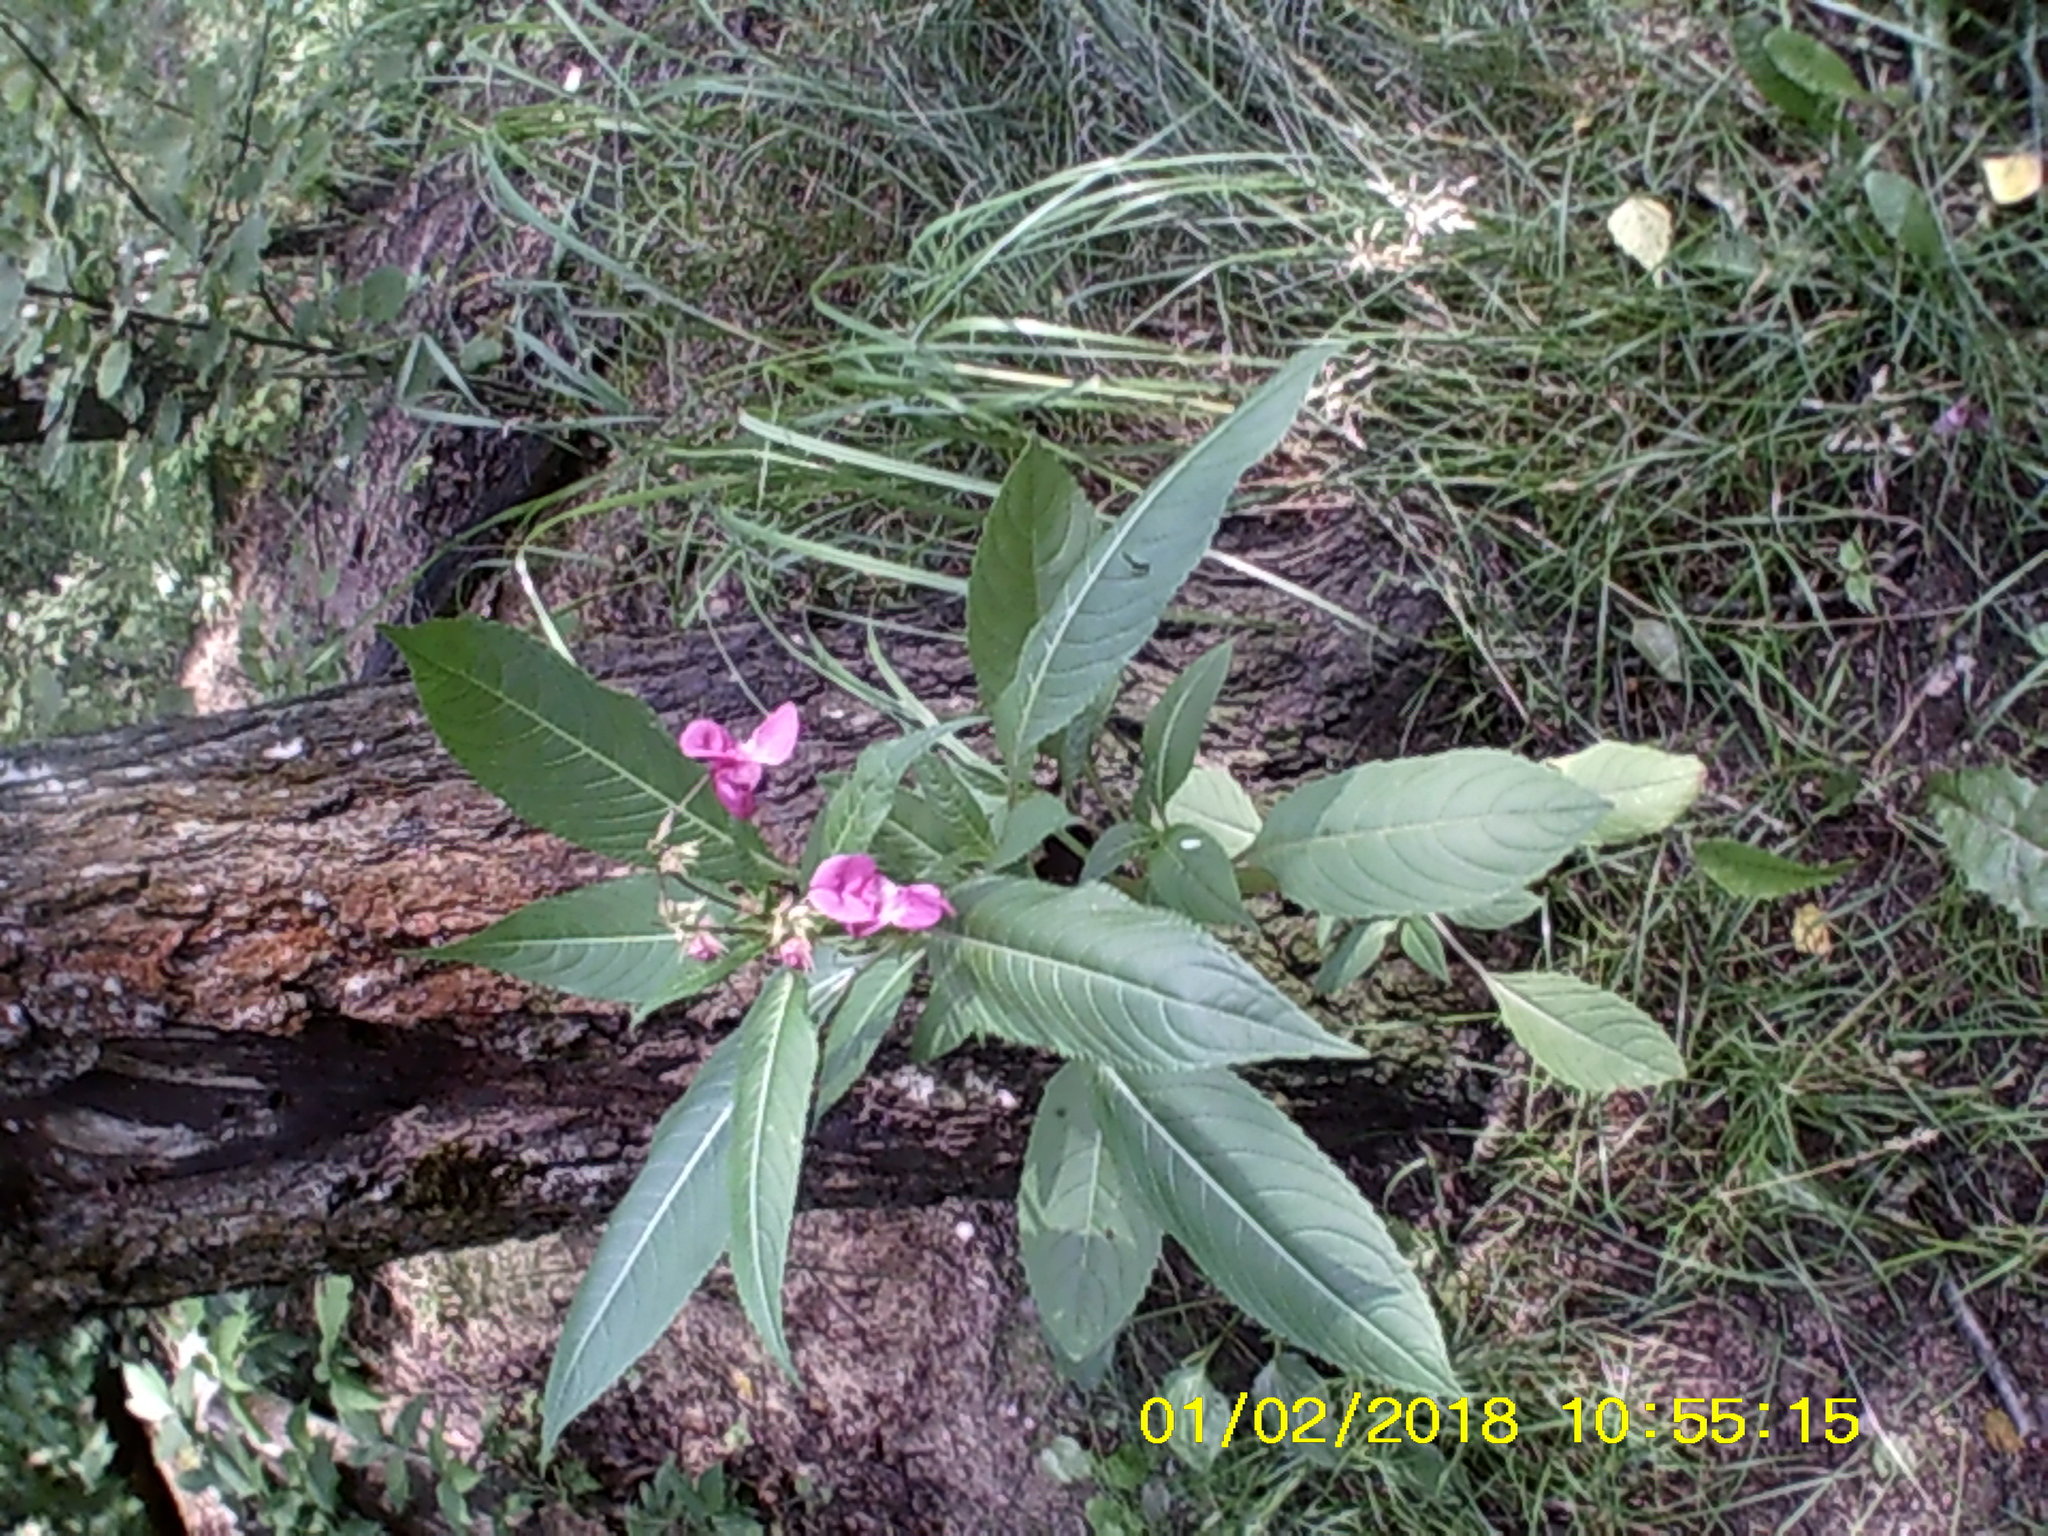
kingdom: Plantae
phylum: Tracheophyta
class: Magnoliopsida
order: Ericales
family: Balsaminaceae
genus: Impatiens
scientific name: Impatiens glandulifera
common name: Himalayan balsam
